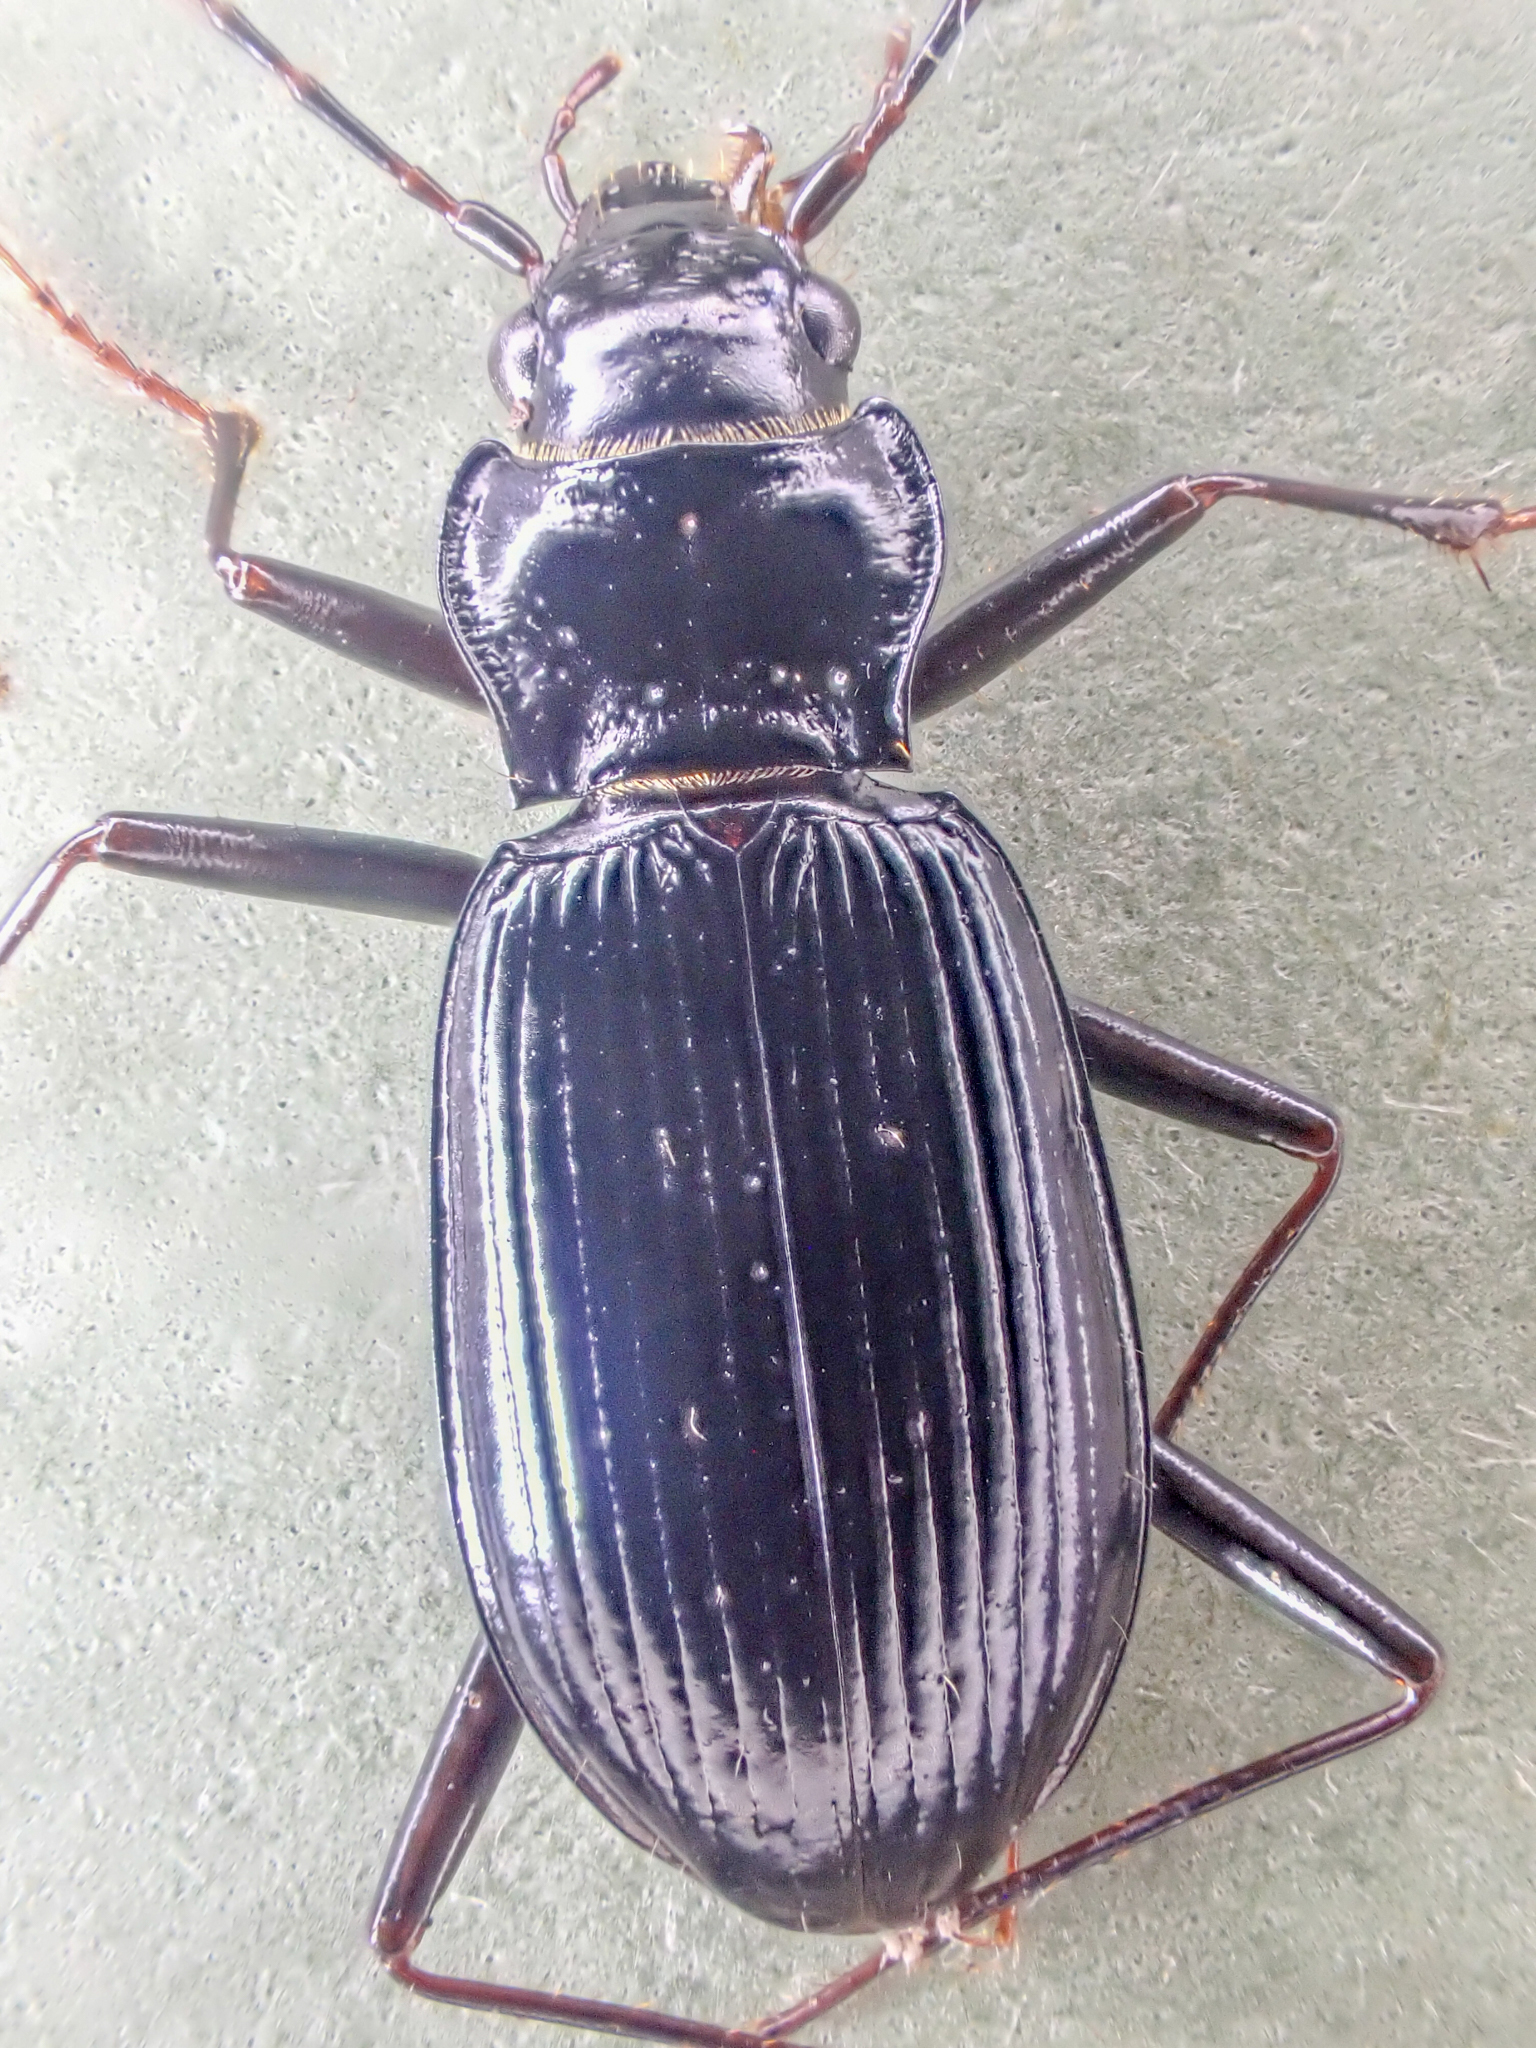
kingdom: Animalia
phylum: Arthropoda
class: Insecta
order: Coleoptera
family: Carabidae
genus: Nebria
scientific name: Nebria acuta
